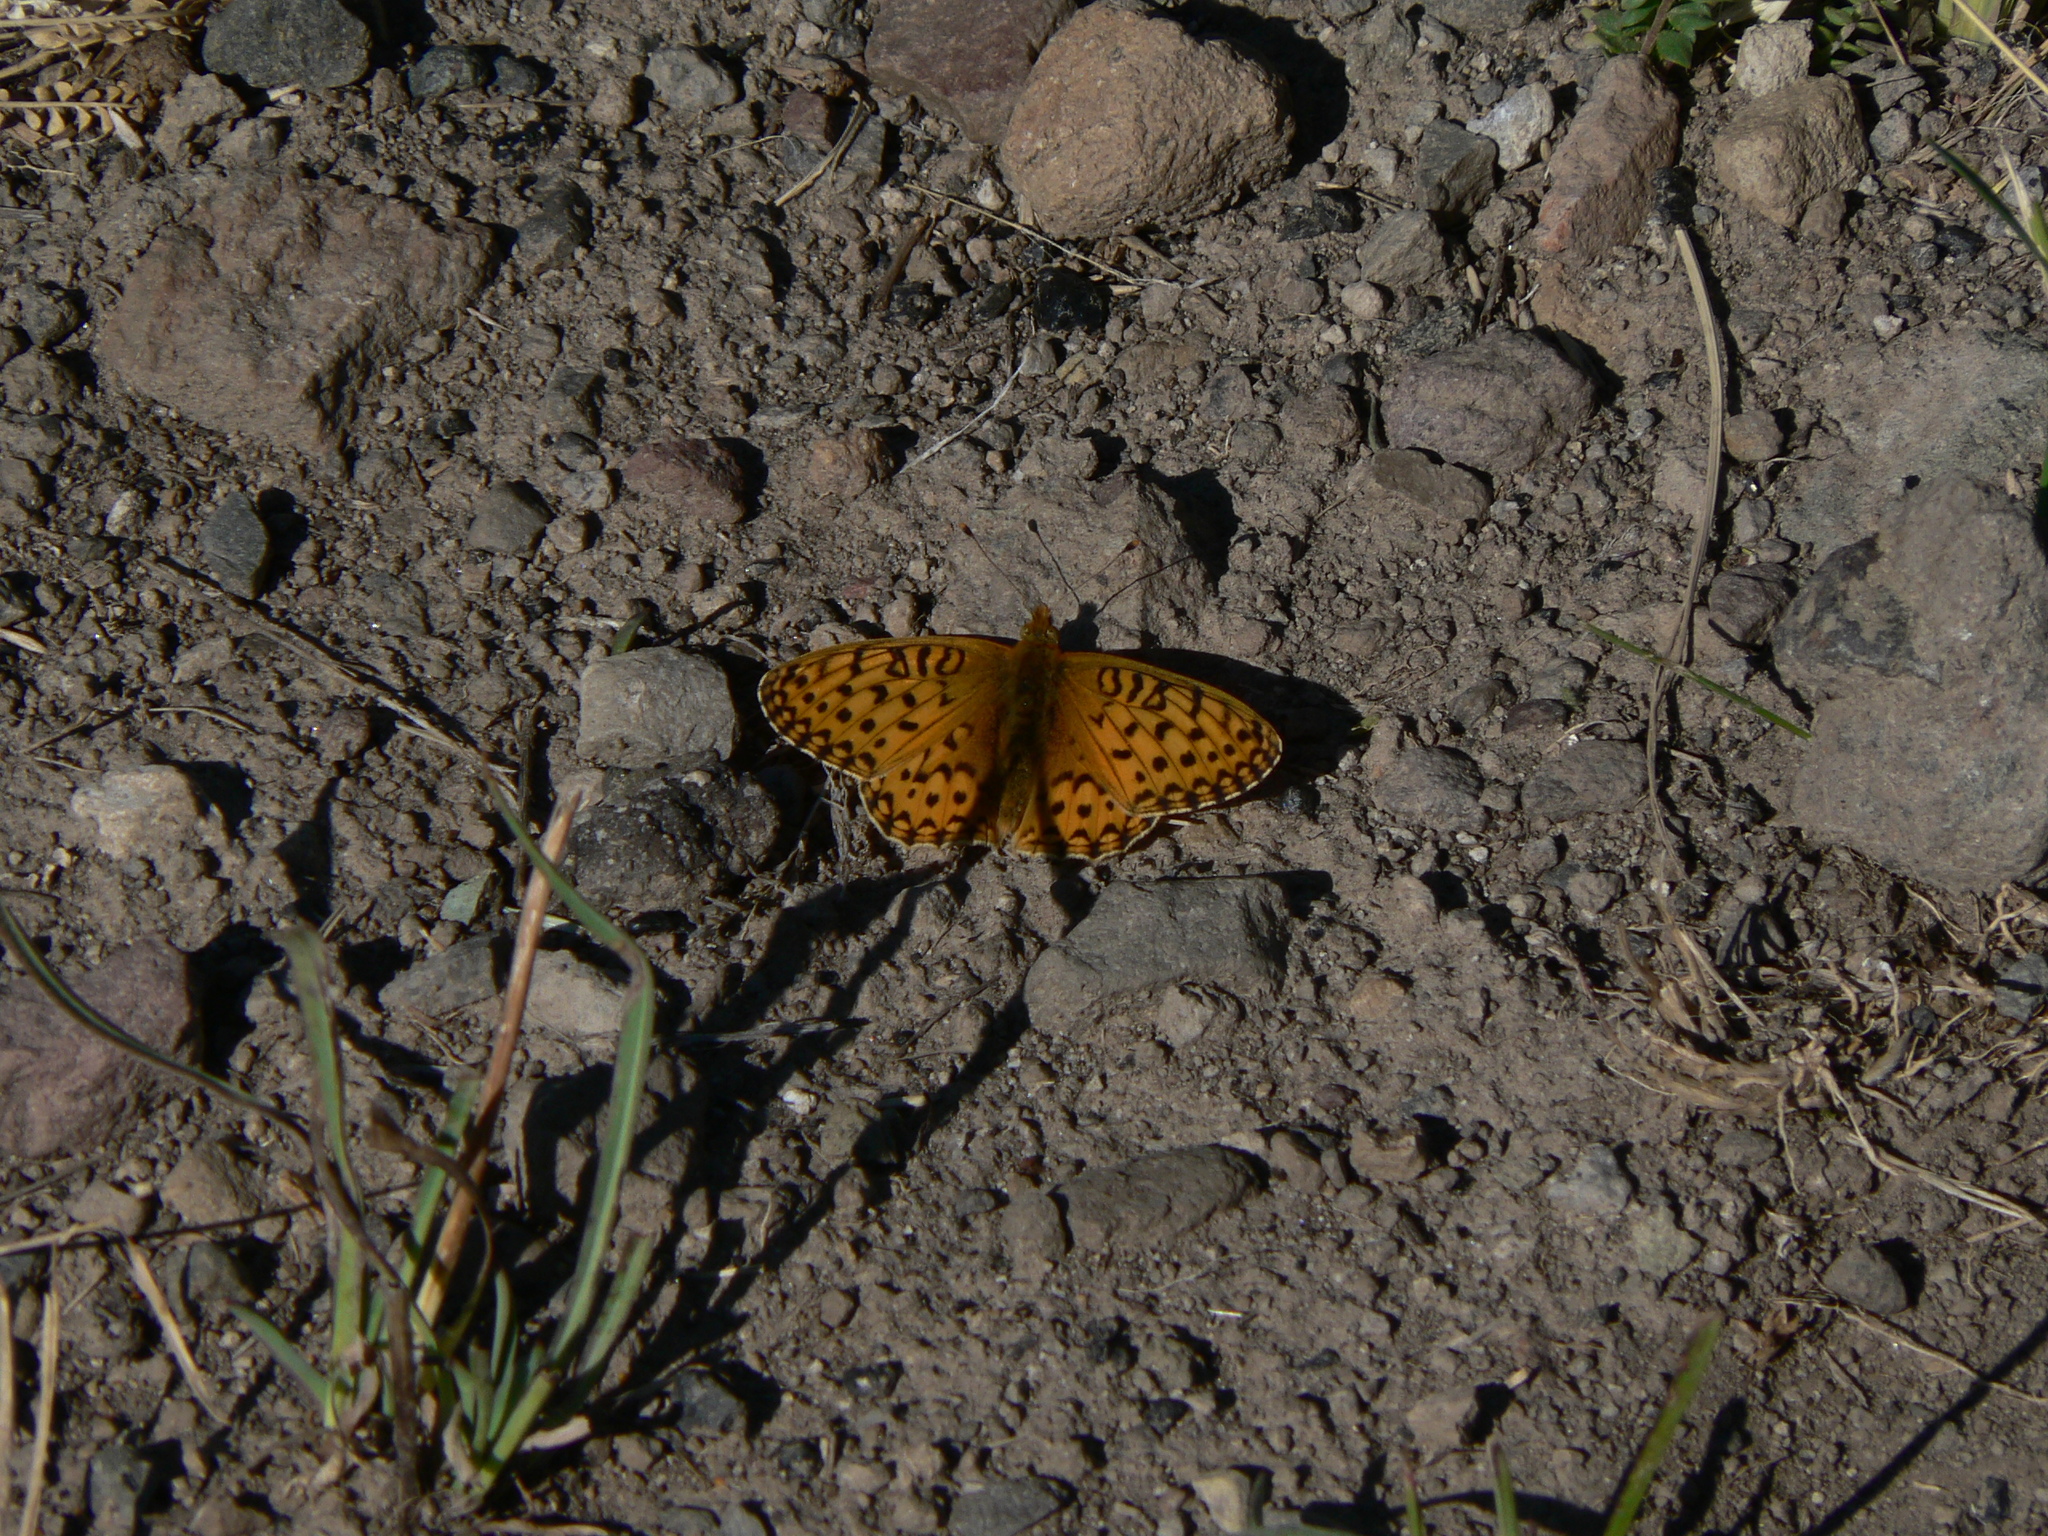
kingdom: Animalia
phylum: Arthropoda
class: Insecta
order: Lepidoptera
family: Nymphalidae
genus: Speyeria
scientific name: Speyeria mormonia
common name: Mormon fritillary
